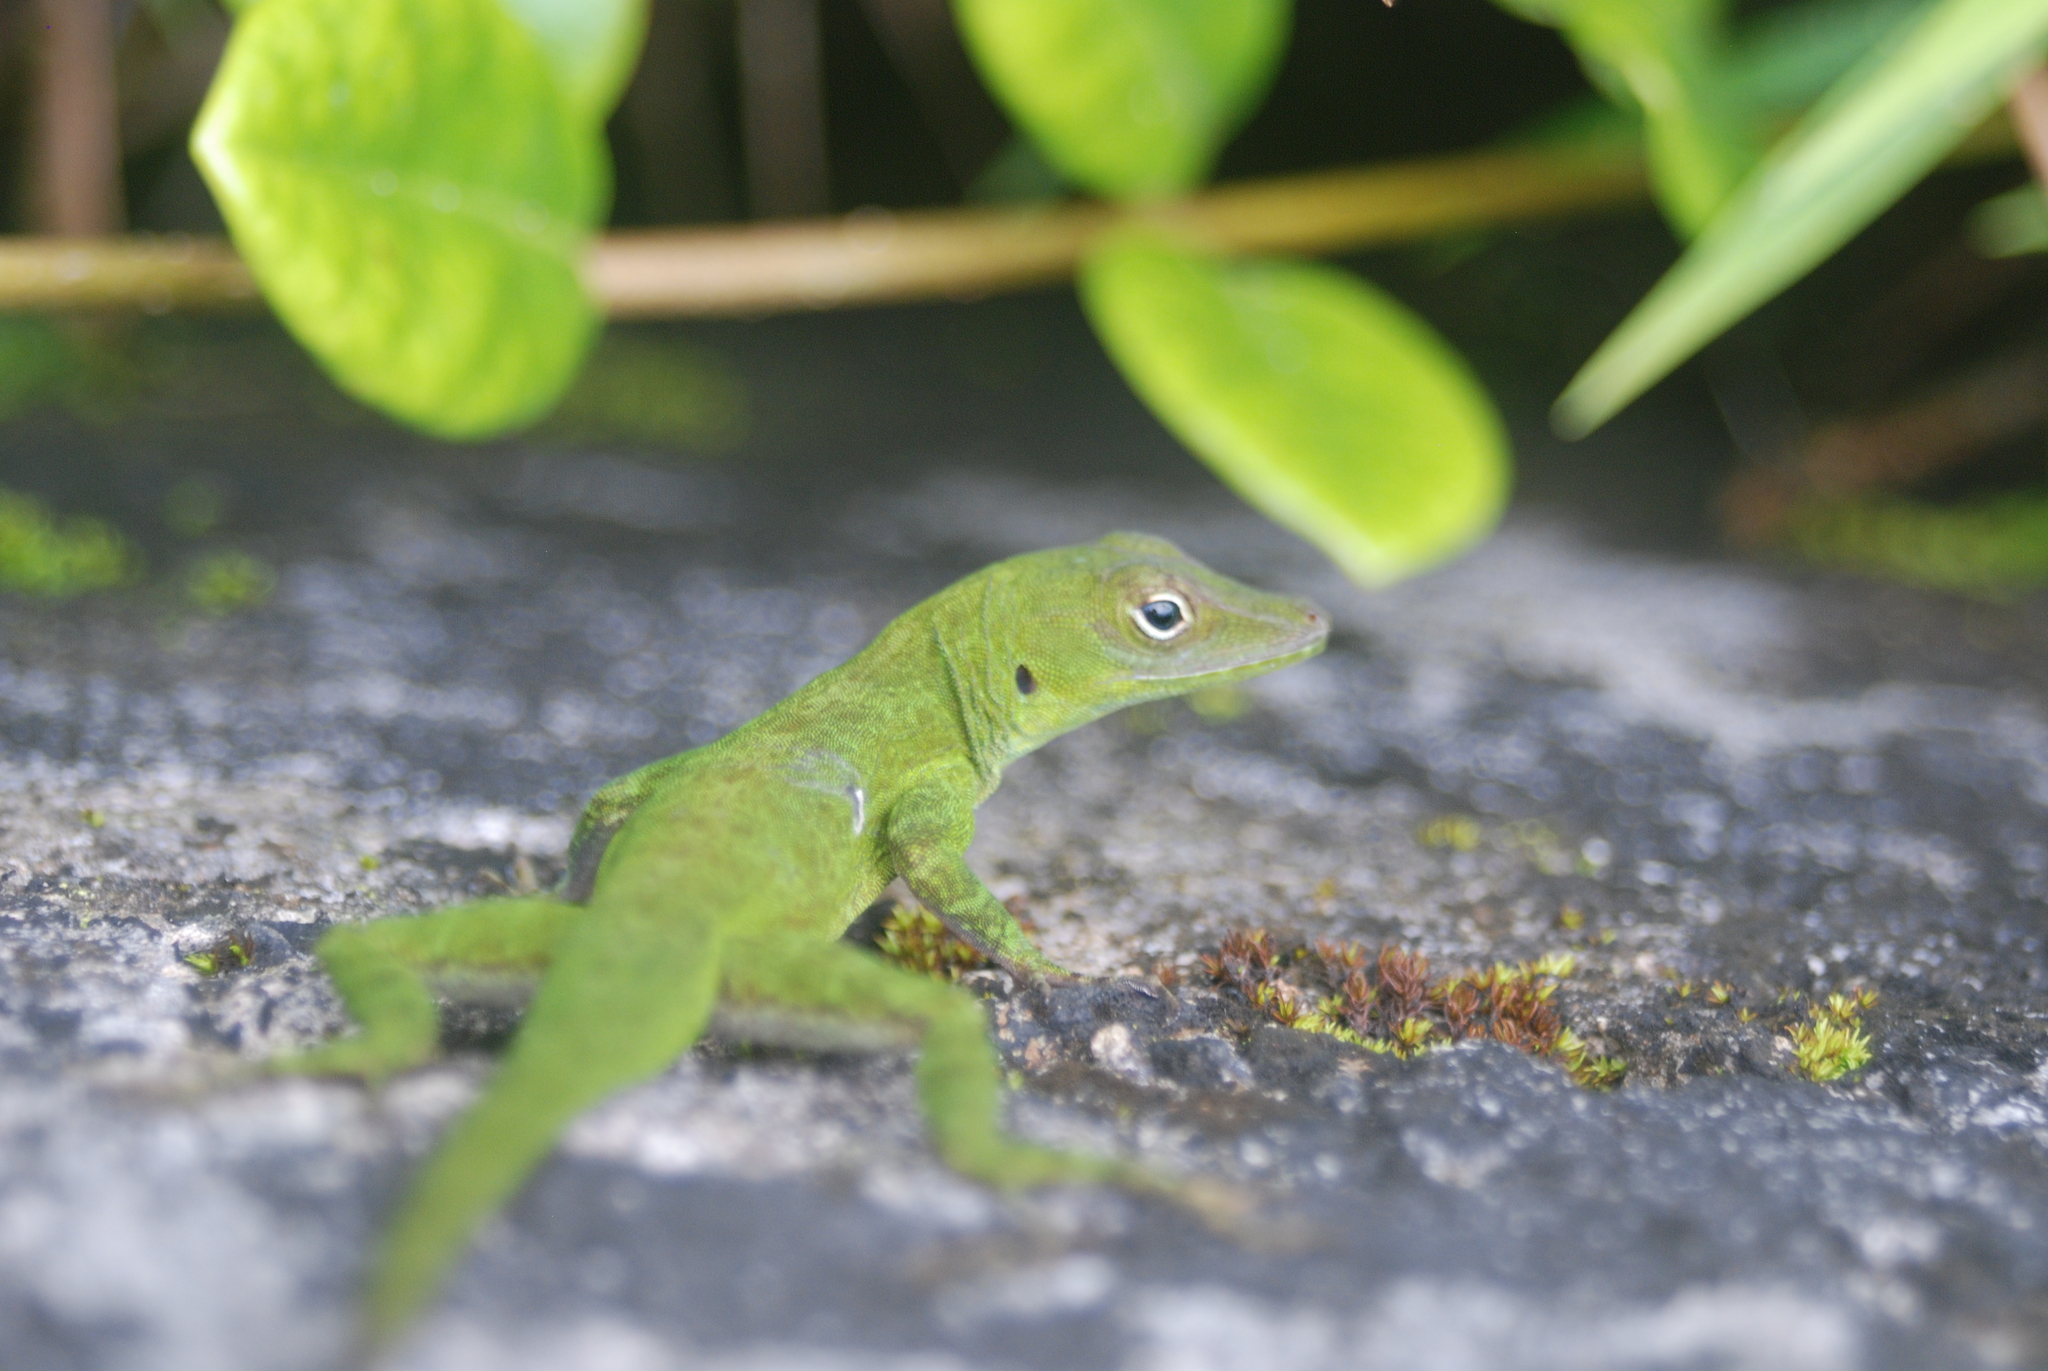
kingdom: Animalia
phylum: Chordata
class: Squamata
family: Dactyloidae
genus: Anolis
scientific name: Anolis evermanni
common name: Emerald anole
